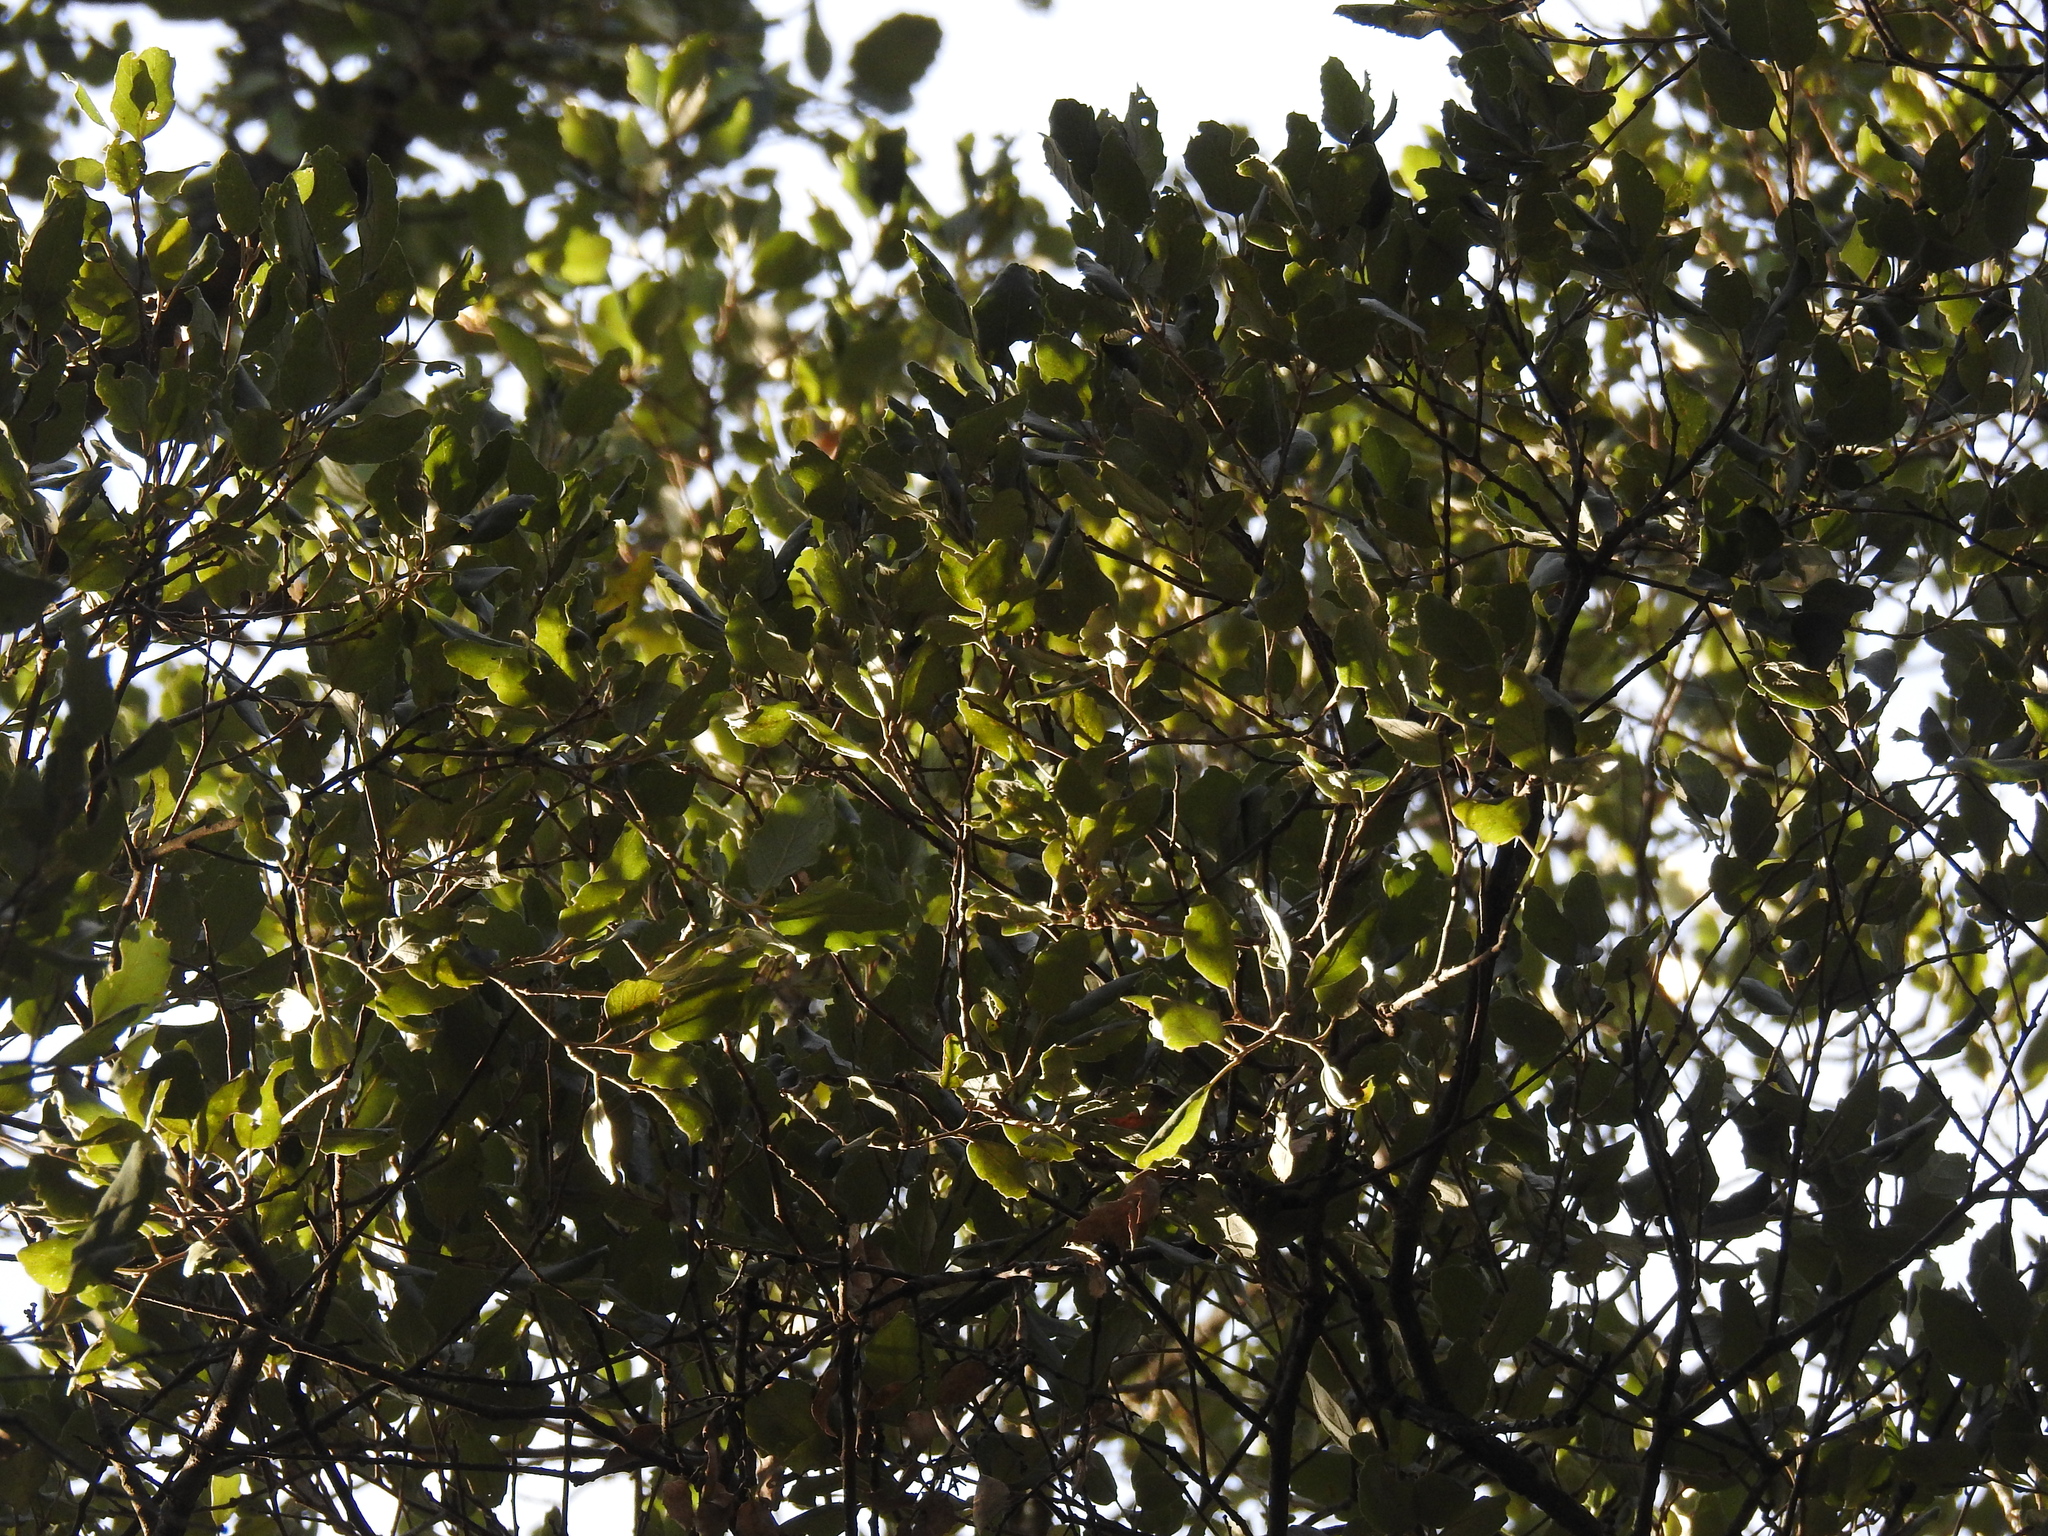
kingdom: Plantae
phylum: Tracheophyta
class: Magnoliopsida
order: Fagales
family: Fagaceae
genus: Quercus
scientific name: Quercus suber
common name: Cork oak
